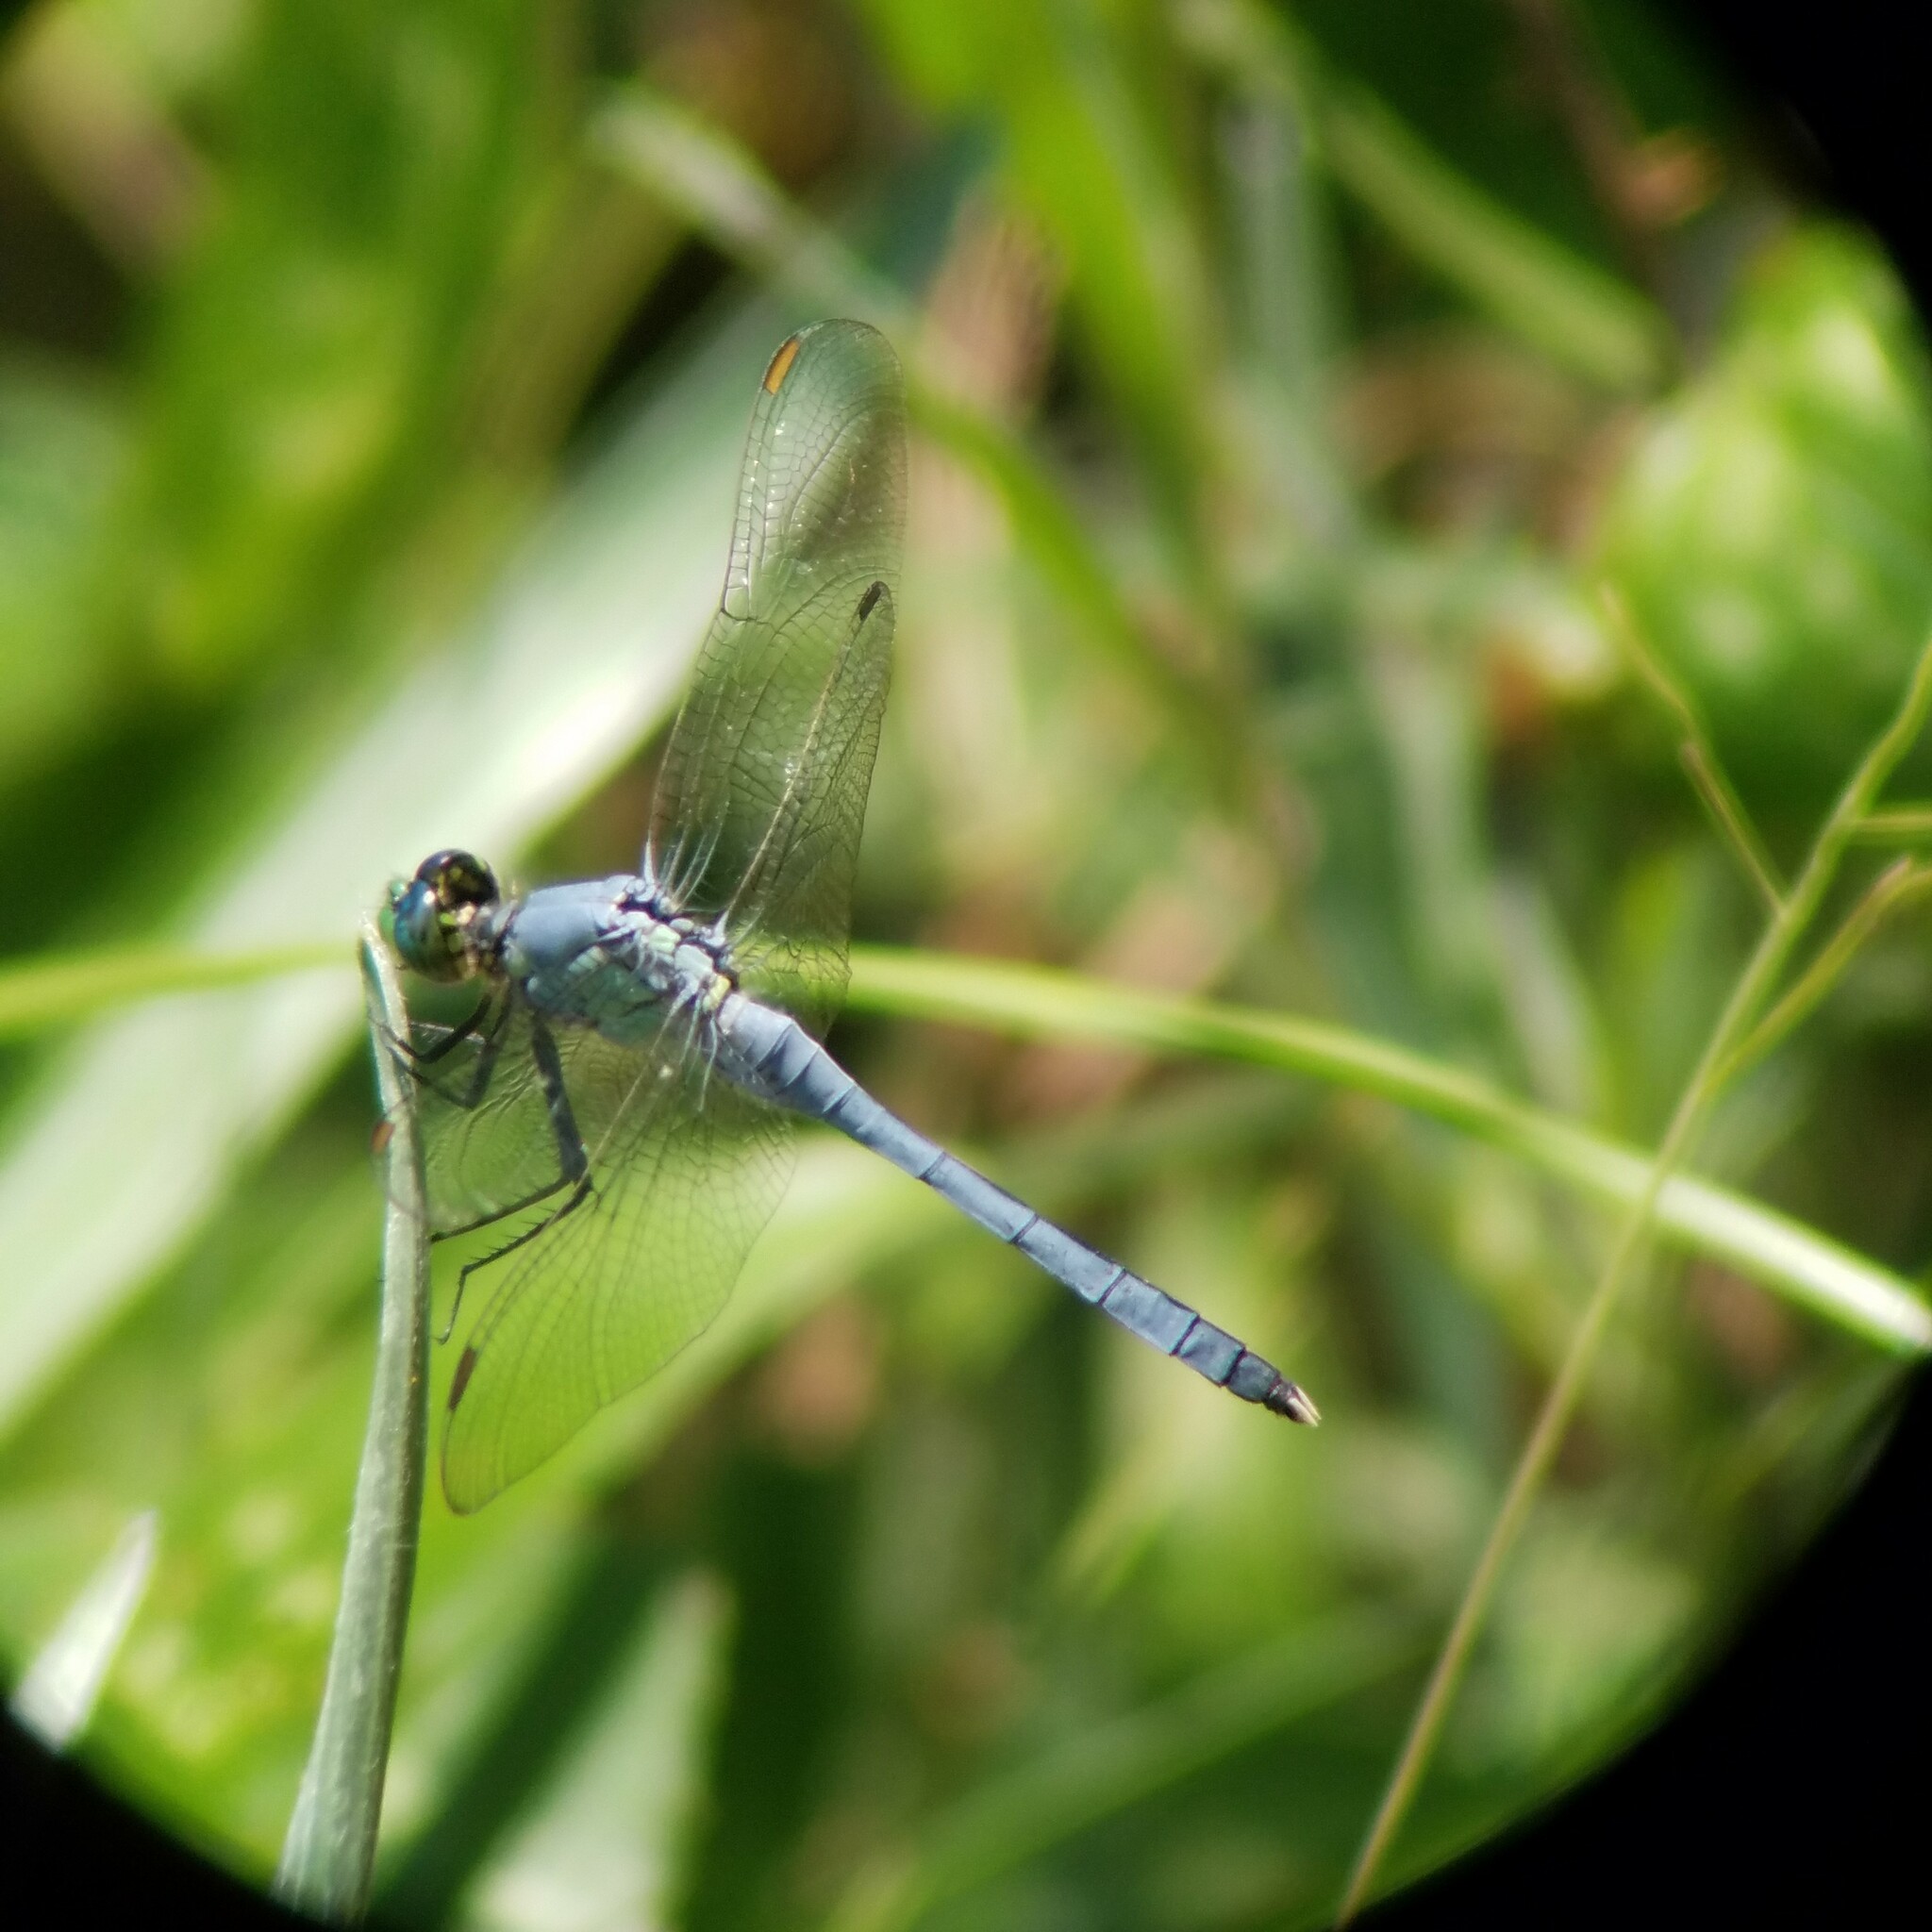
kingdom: Animalia
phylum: Arthropoda
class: Insecta
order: Odonata
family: Libellulidae
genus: Erythemis
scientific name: Erythemis simplicicollis
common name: Eastern pondhawk
